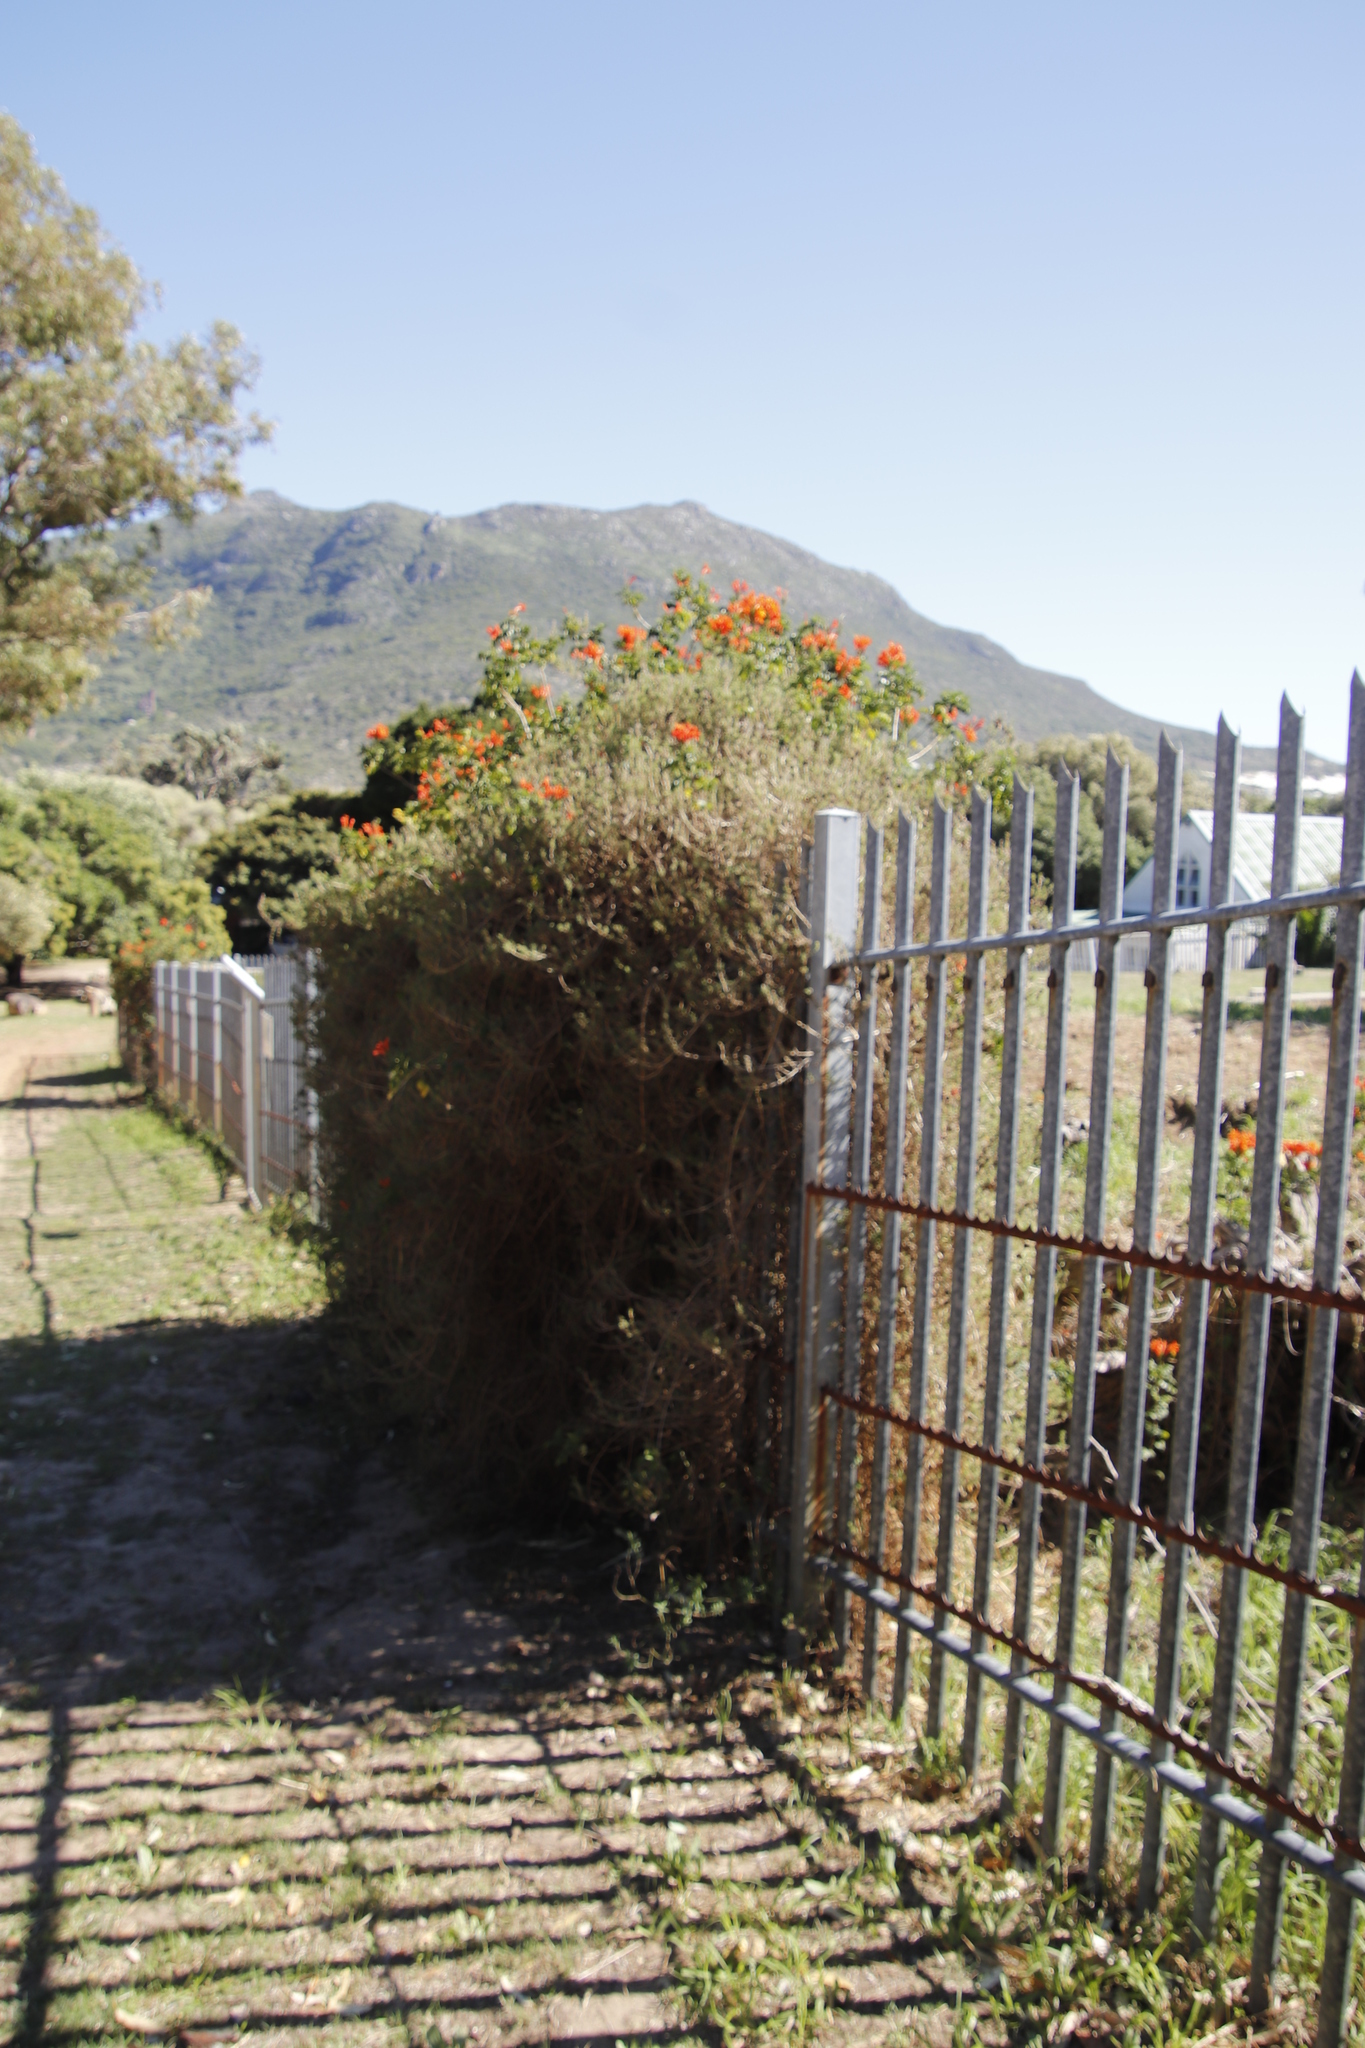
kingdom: Plantae
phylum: Tracheophyta
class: Magnoliopsida
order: Caryophyllales
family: Aizoaceae
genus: Tetragonia
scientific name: Tetragonia fruticosa
